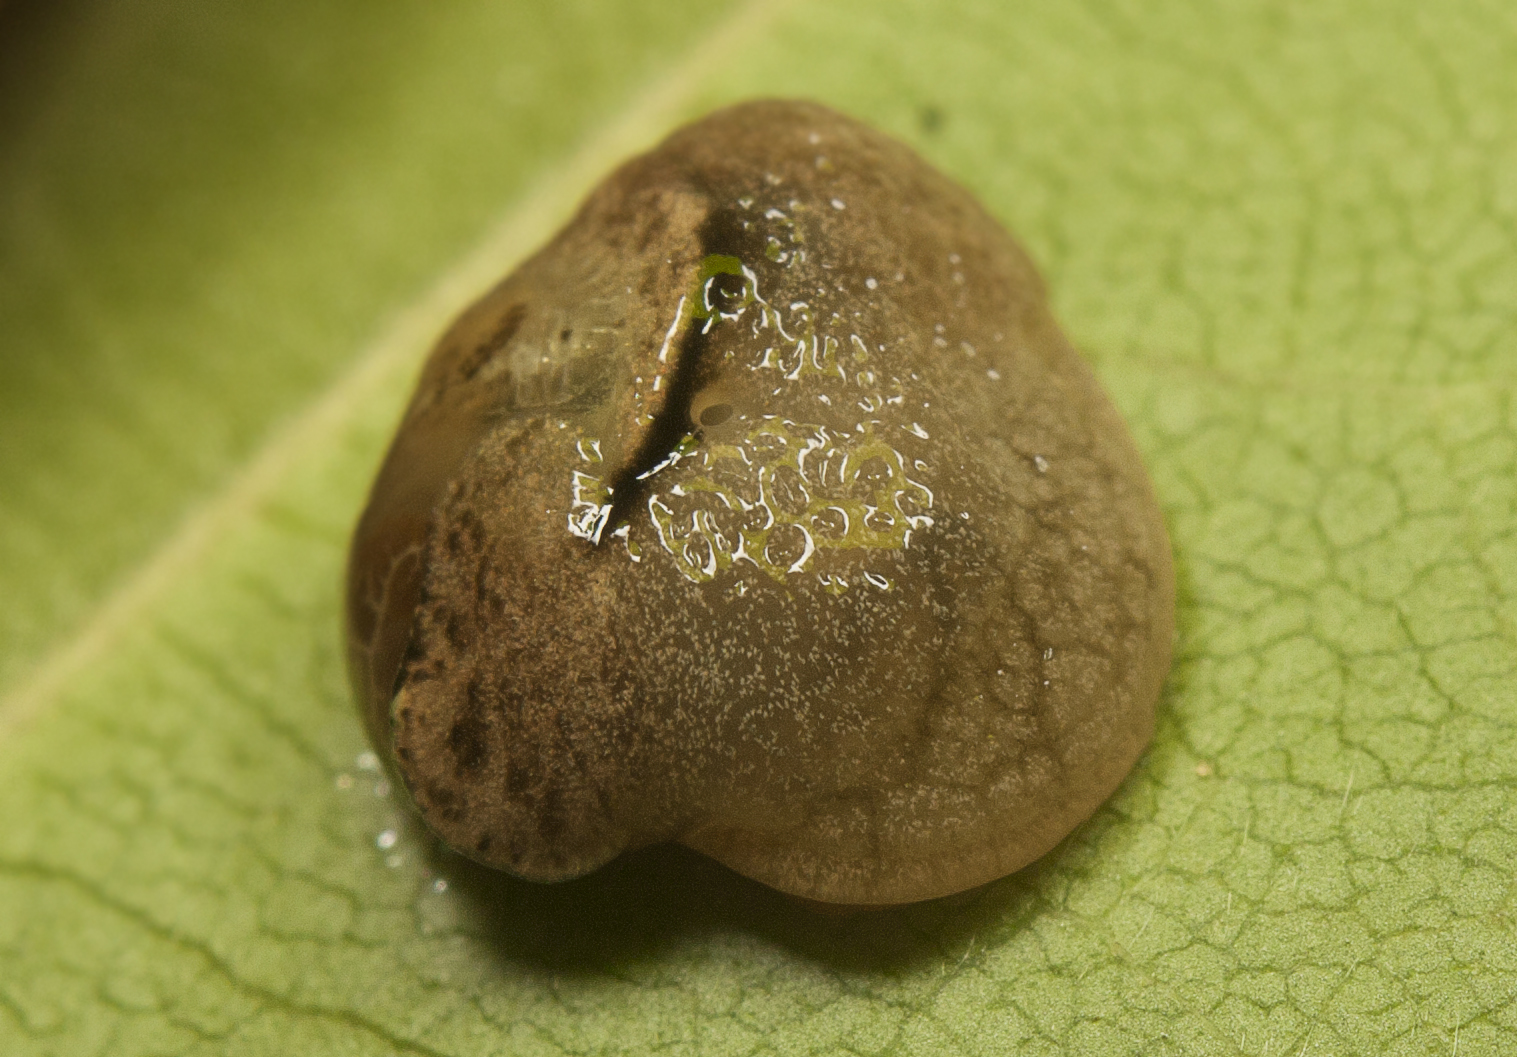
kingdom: Animalia
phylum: Mollusca
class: Gastropoda
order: Stylommatophora
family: Helicarionidae
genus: Ubiquitarion
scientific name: Ubiquitarion iridis
